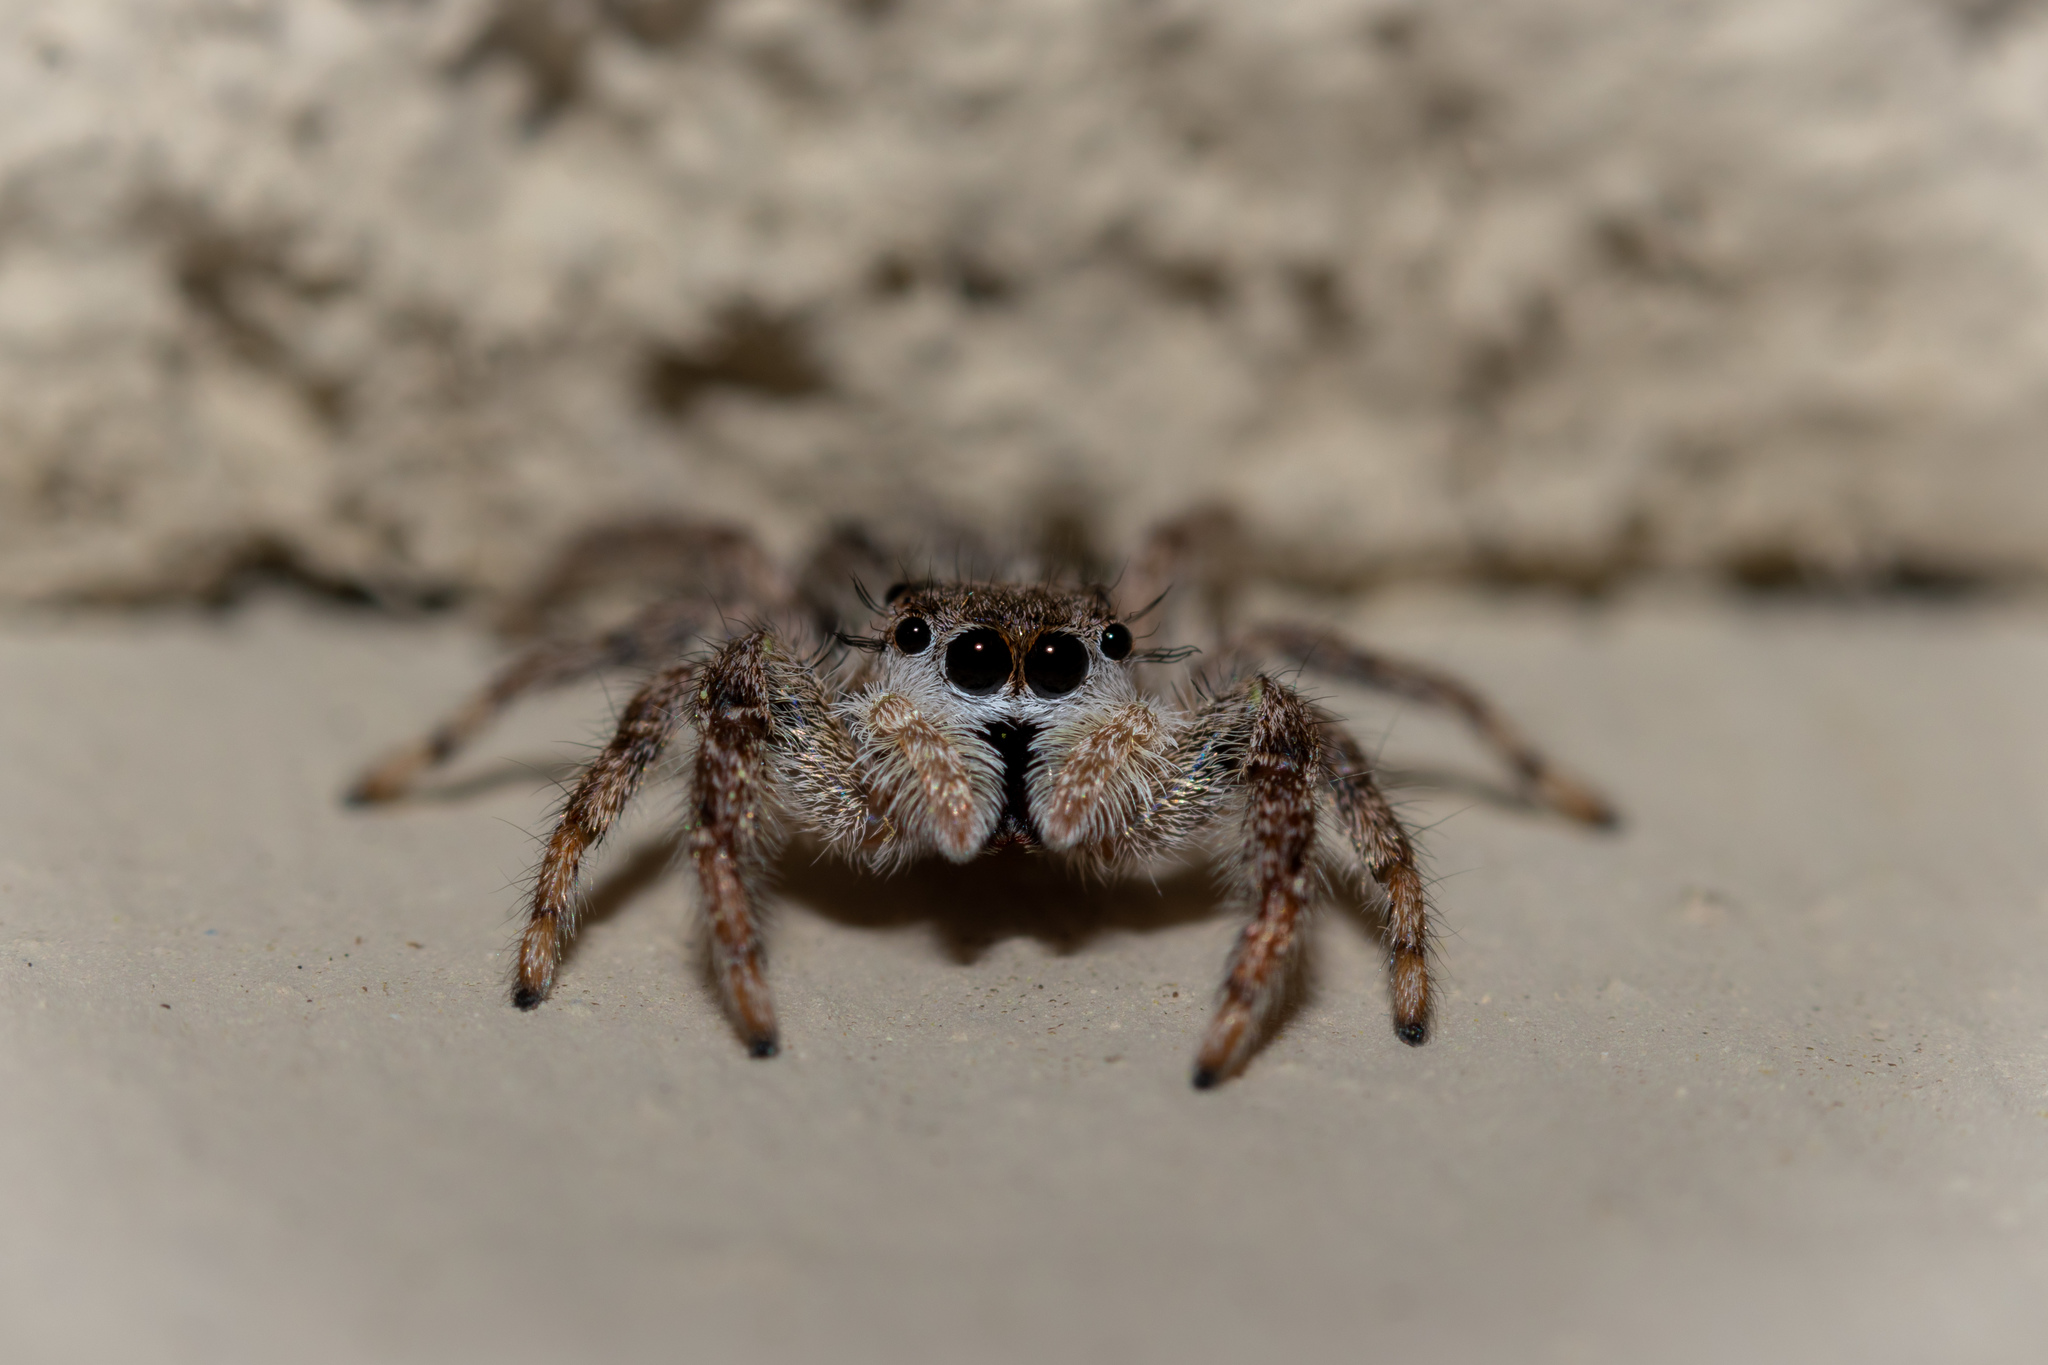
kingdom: Animalia
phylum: Arthropoda
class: Arachnida
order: Araneae
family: Salticidae
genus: Platycryptus
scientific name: Platycryptus undatus
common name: Tan jumping spider
